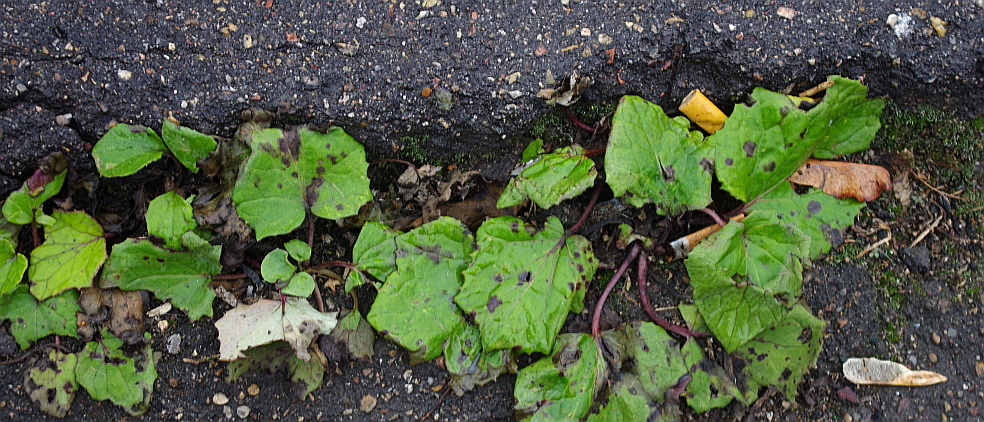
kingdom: Plantae
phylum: Tracheophyta
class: Magnoliopsida
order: Asterales
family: Asteraceae
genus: Tussilago
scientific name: Tussilago farfara
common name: Coltsfoot
